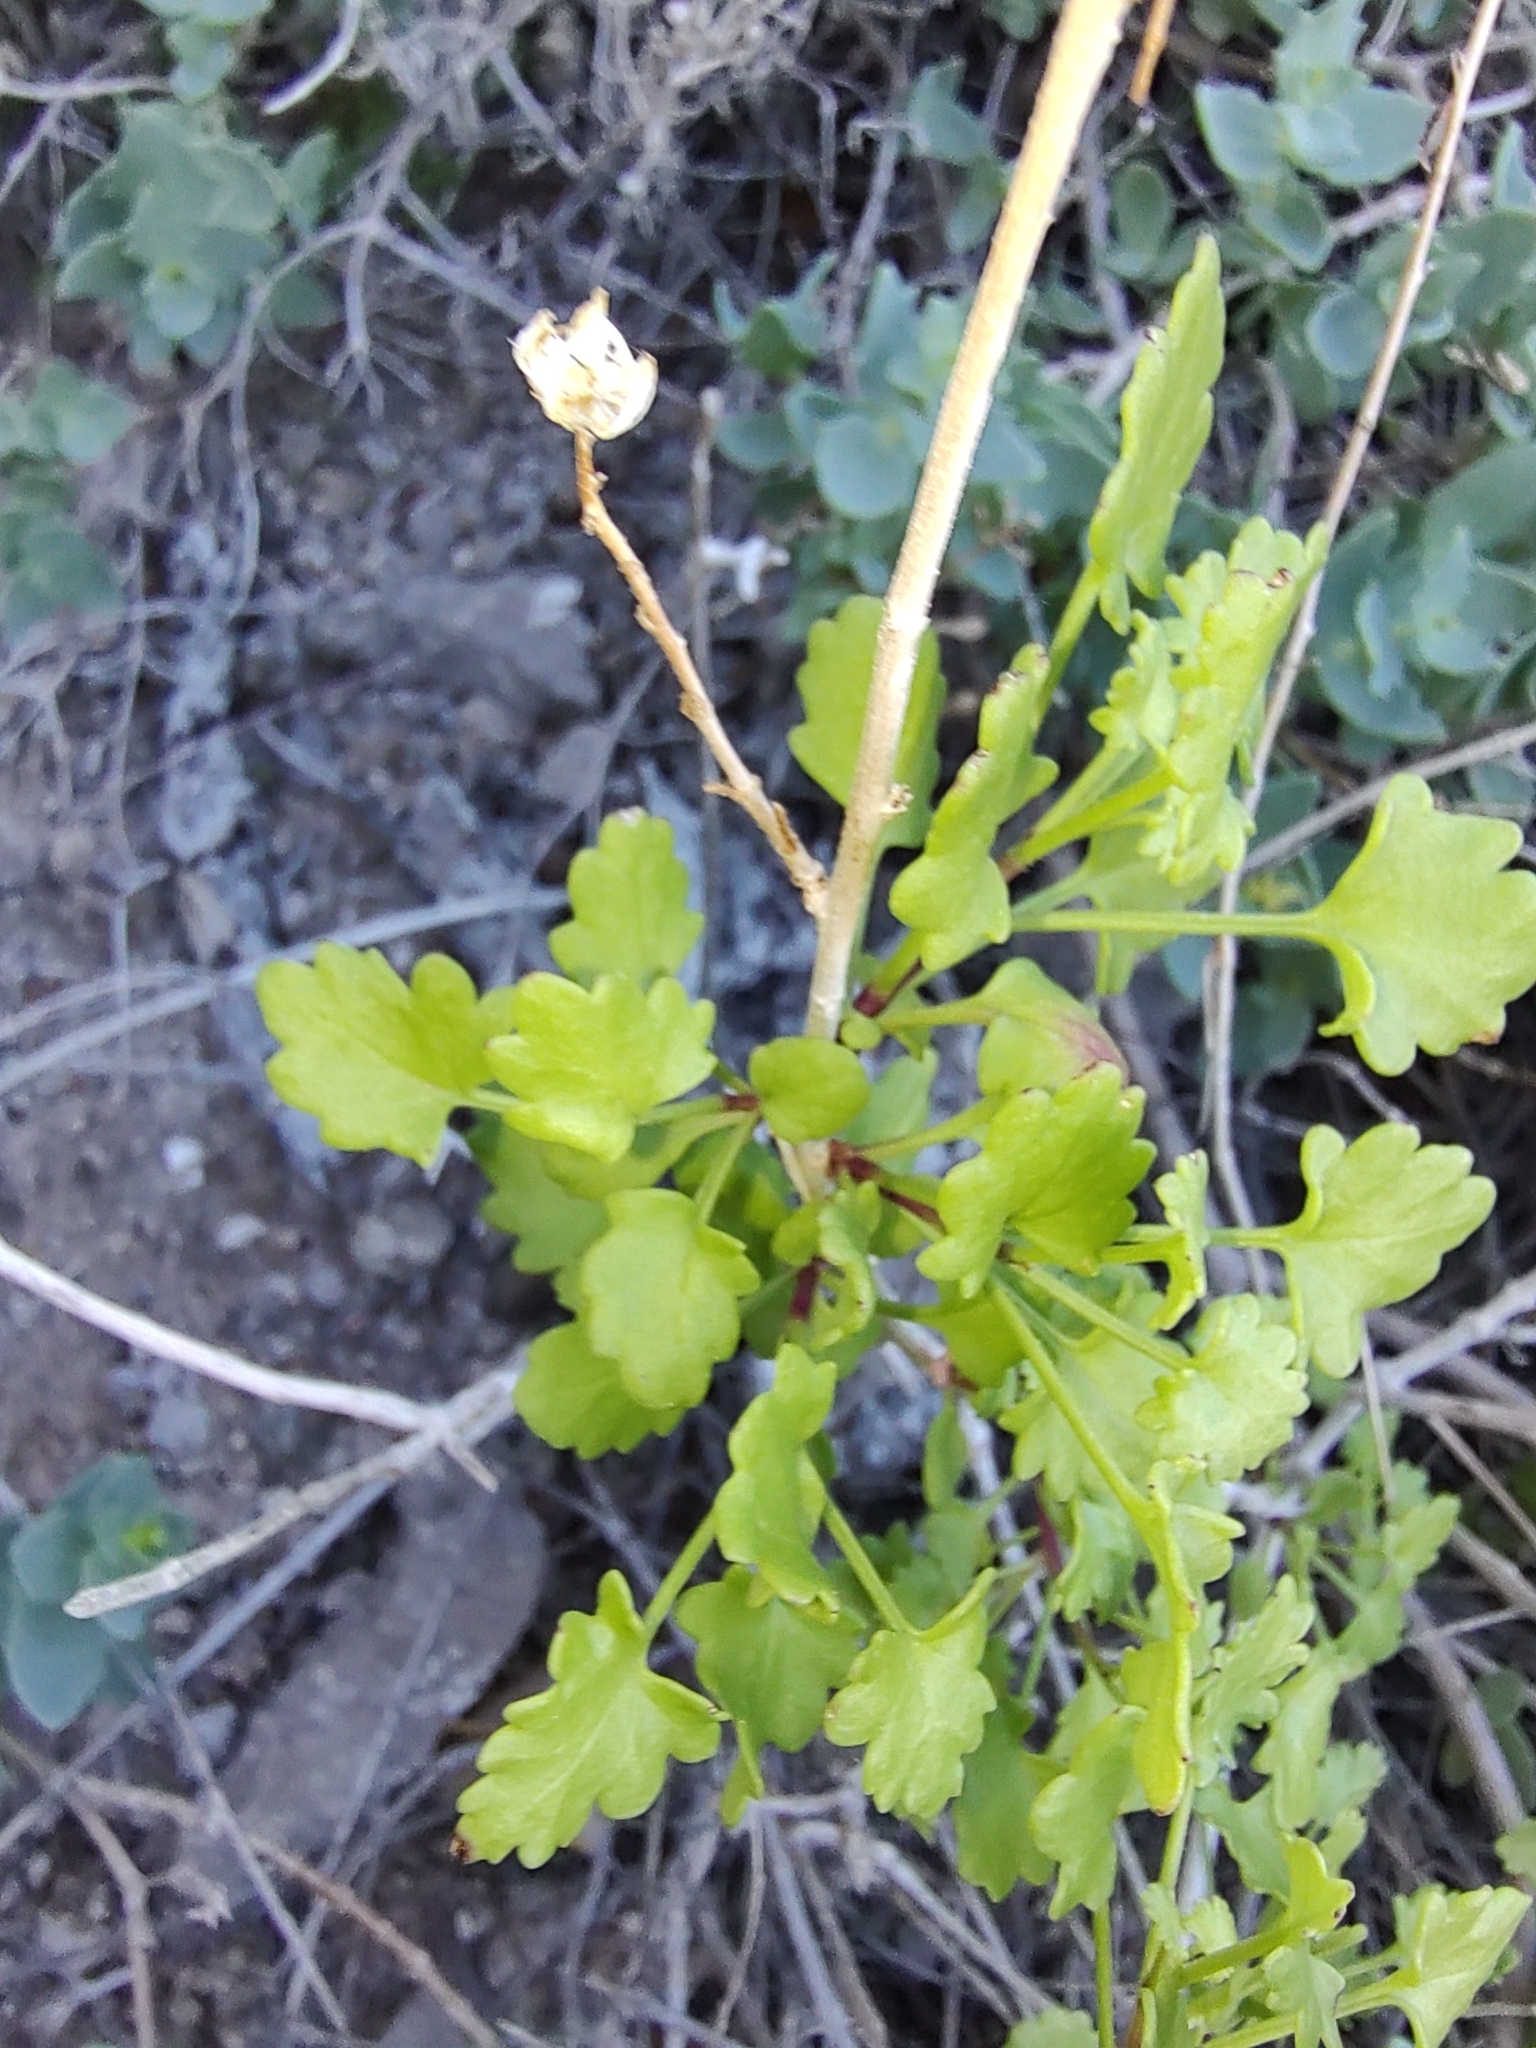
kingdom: Plantae
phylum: Tracheophyta
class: Magnoliopsida
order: Asterales
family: Asteraceae
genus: Pleurocoronis
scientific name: Pleurocoronis laphamioides
